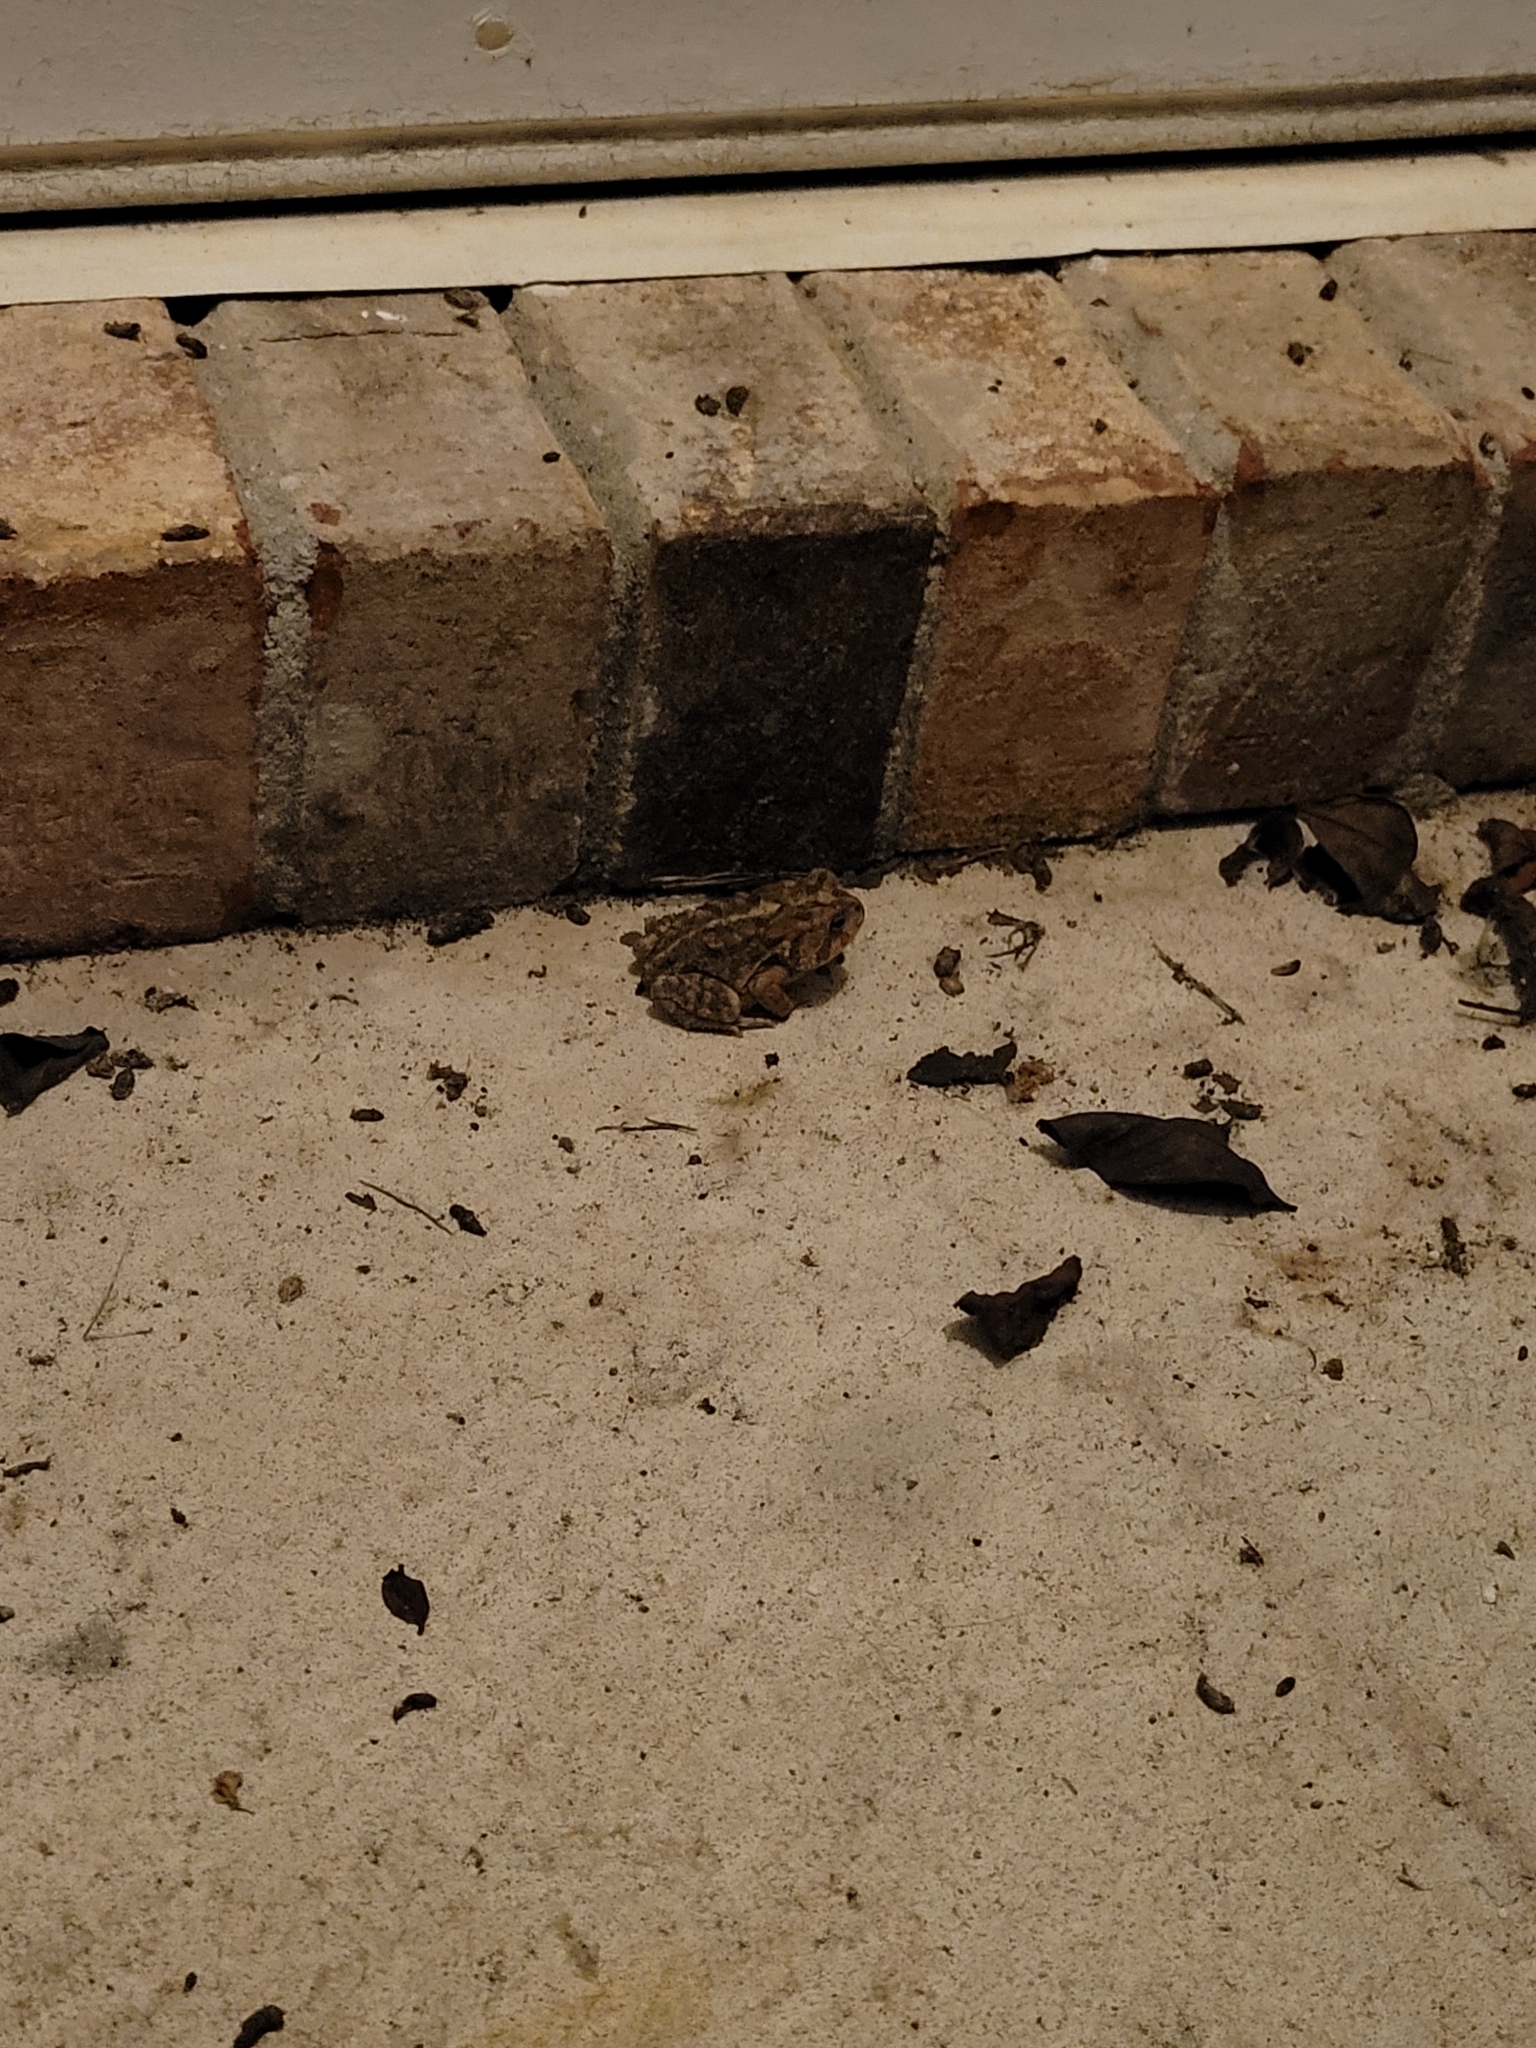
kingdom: Animalia
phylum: Chordata
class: Amphibia
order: Anura
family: Bufonidae
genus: Anaxyrus
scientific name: Anaxyrus terrestris
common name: Southern toad
